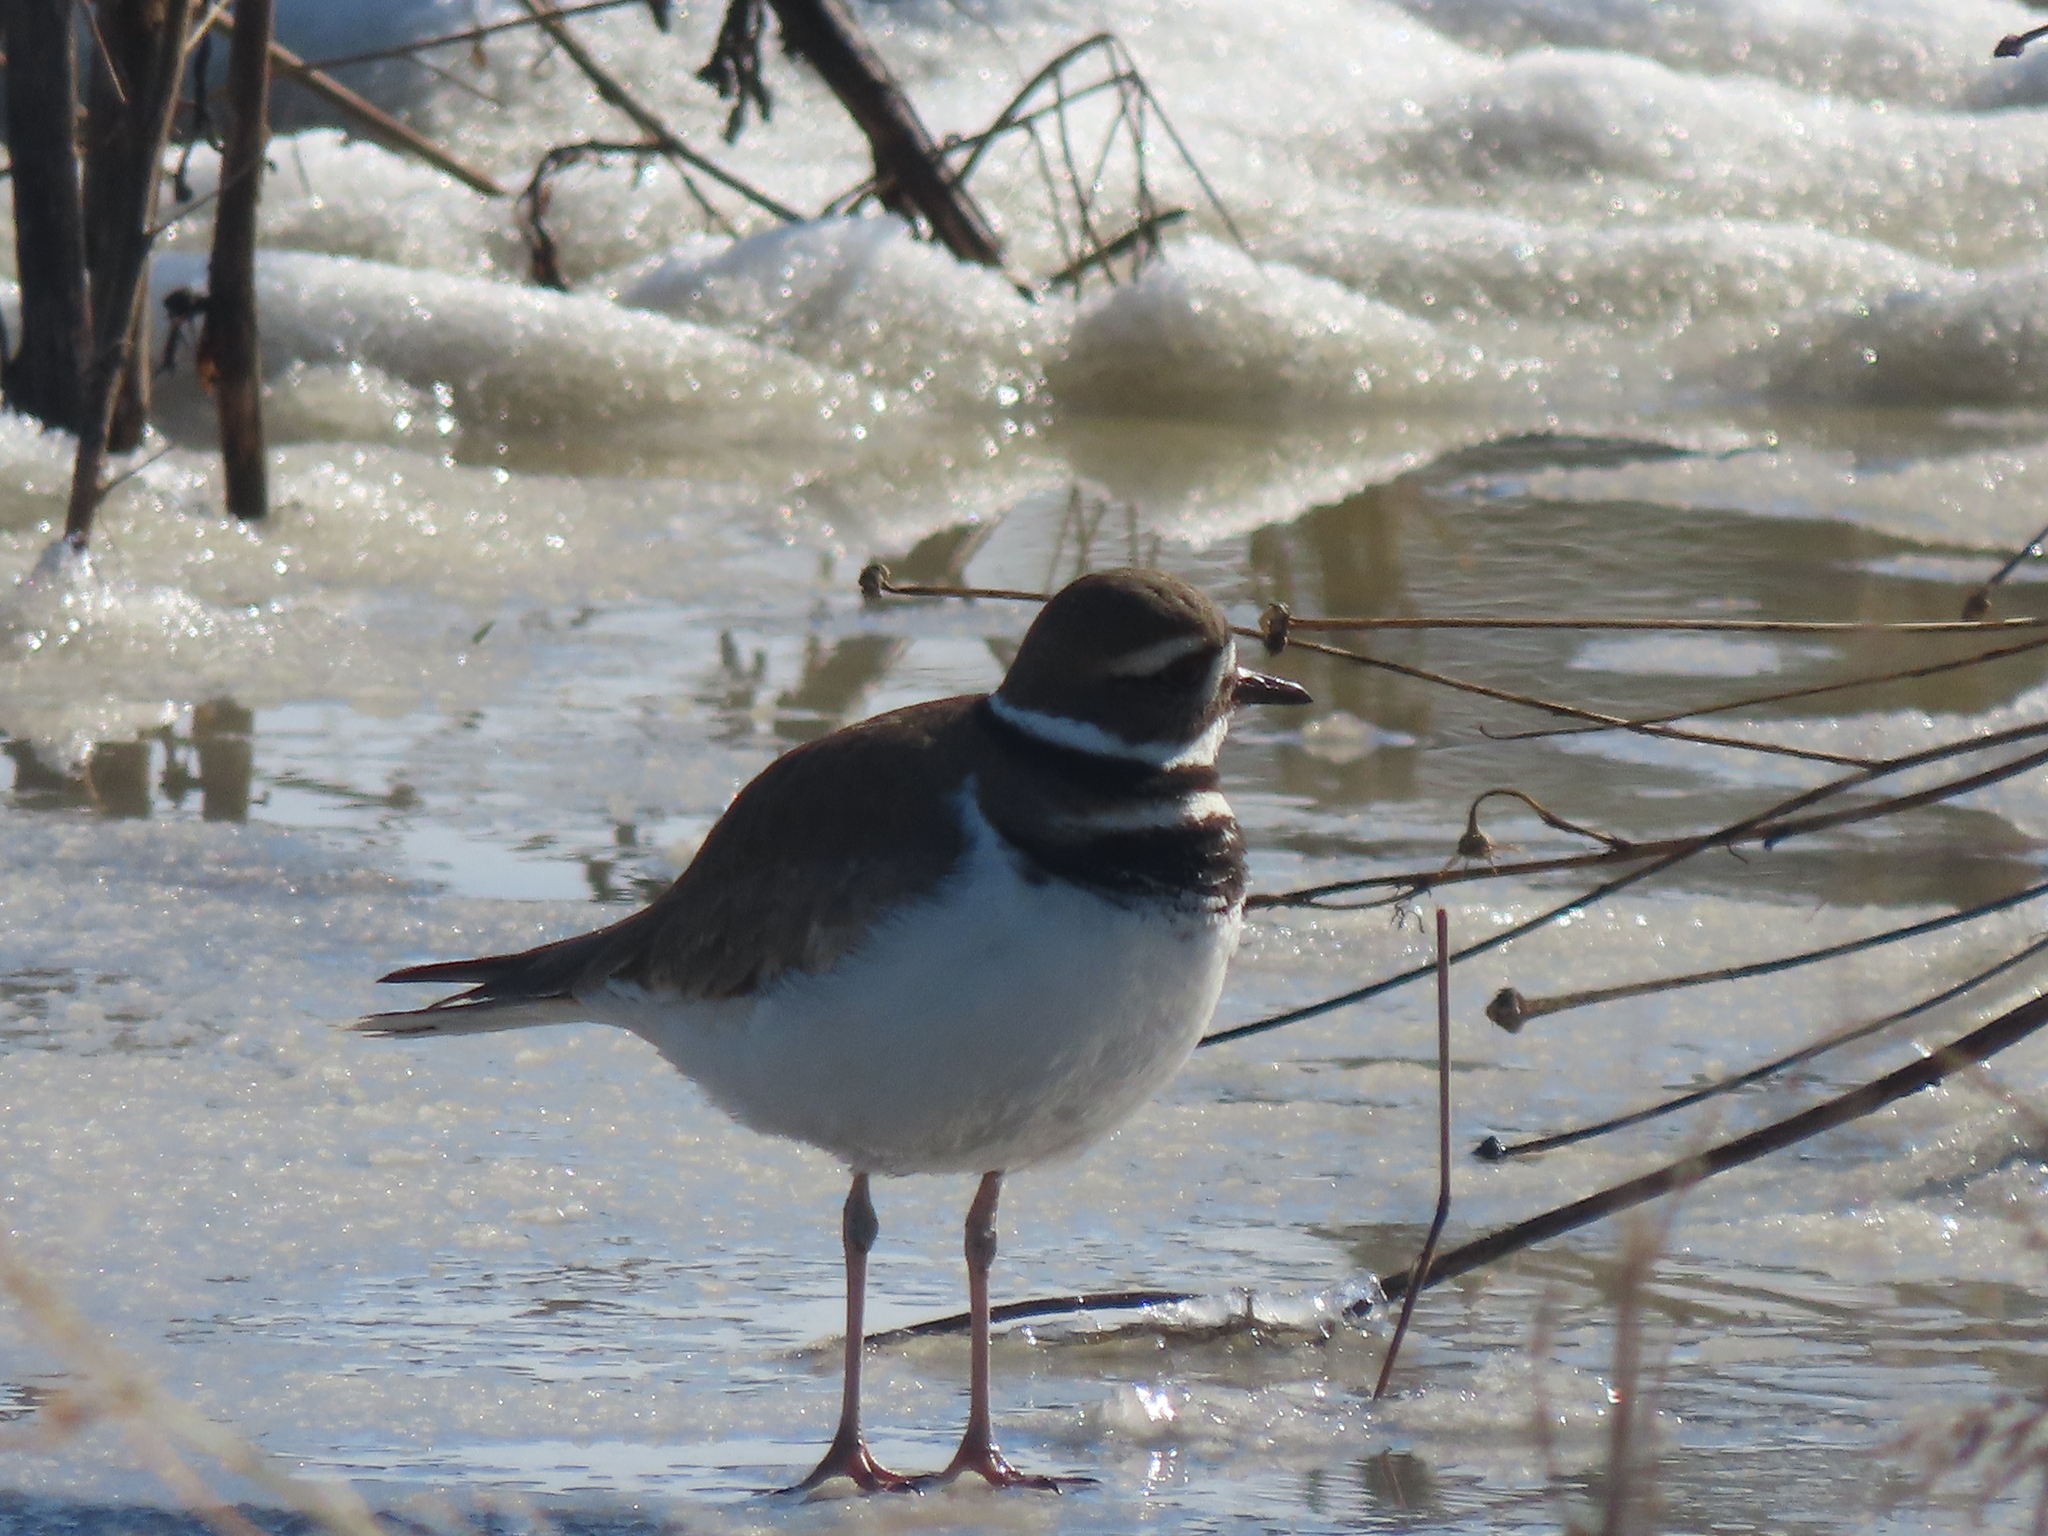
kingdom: Animalia
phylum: Chordata
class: Aves
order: Charadriiformes
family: Charadriidae
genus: Charadrius
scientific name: Charadrius vociferus
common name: Killdeer
